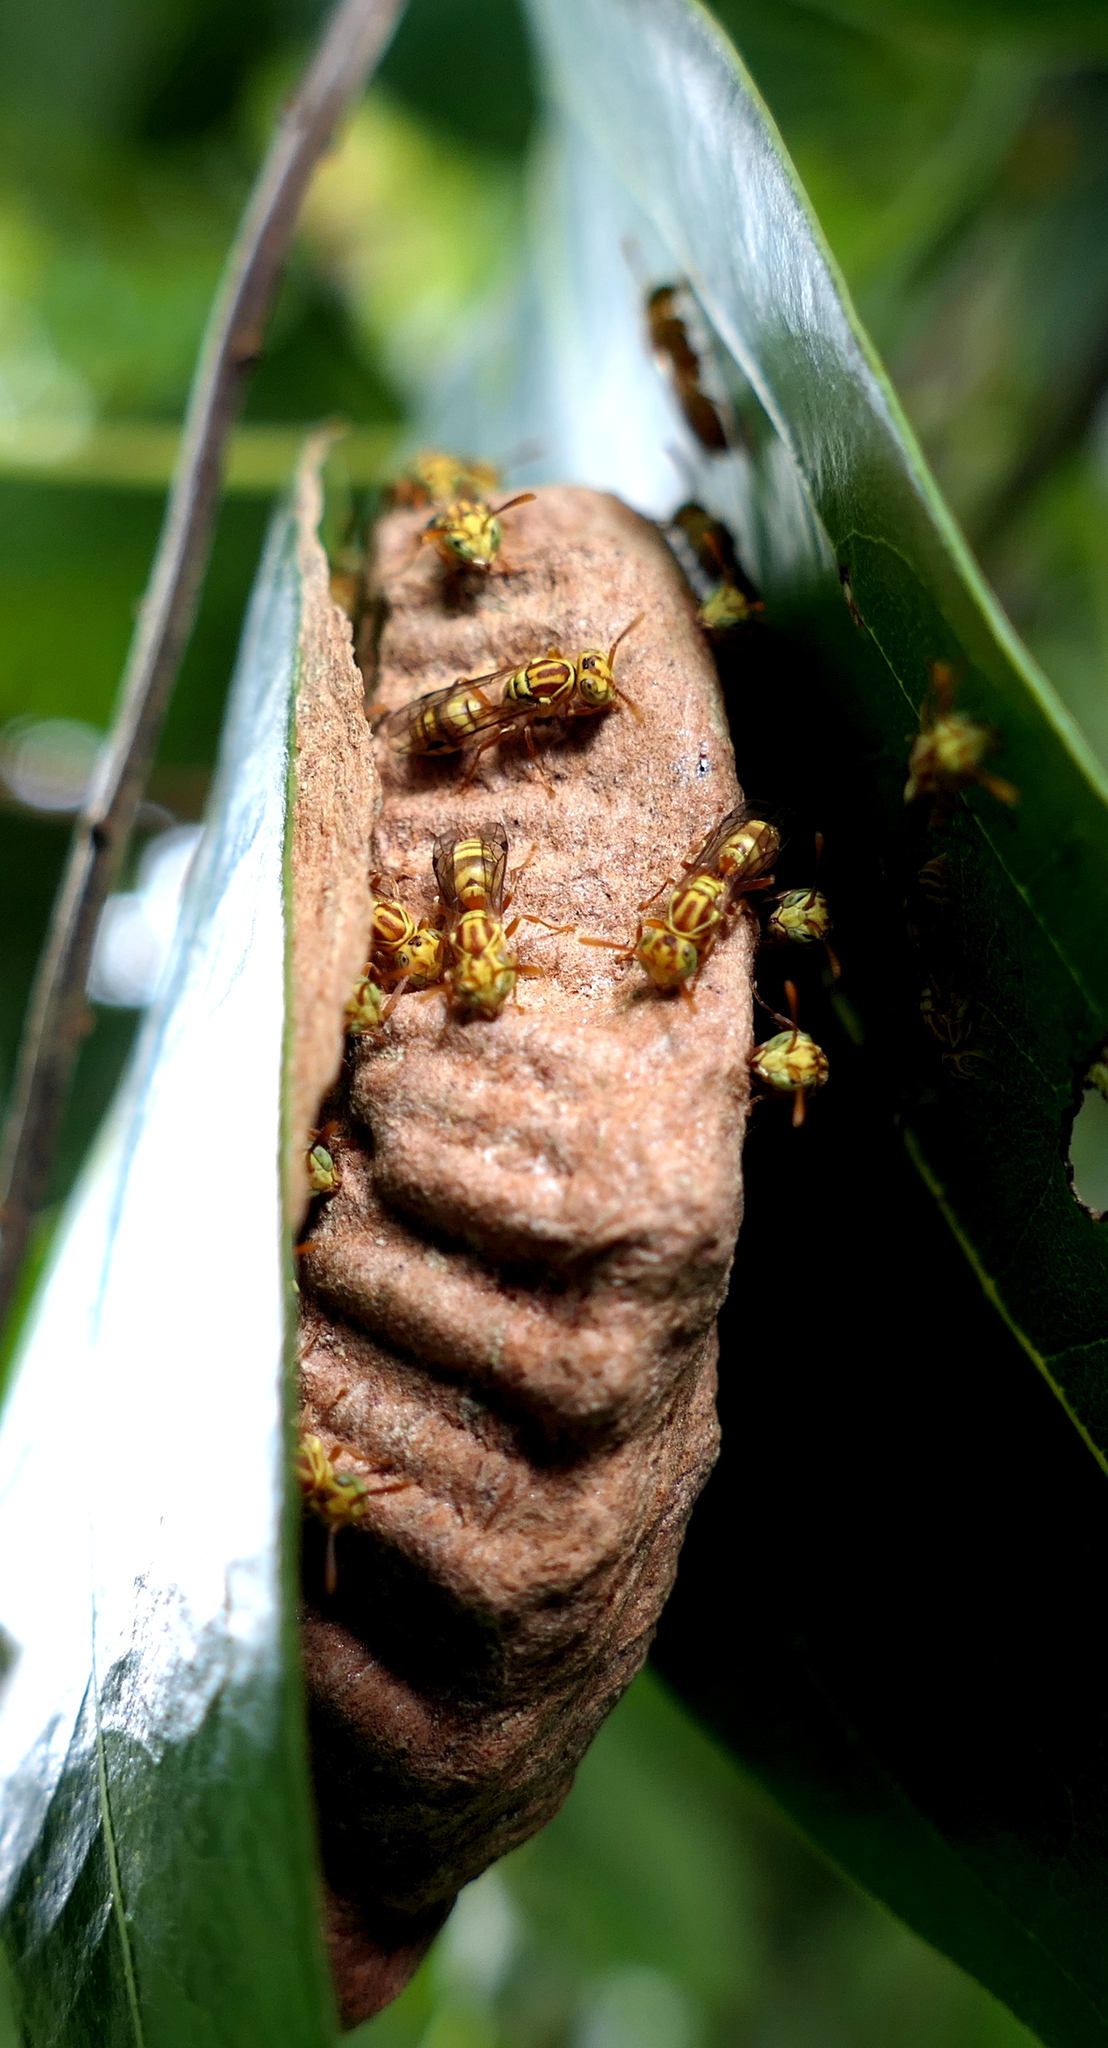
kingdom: Animalia
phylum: Arthropoda
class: Insecta
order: Hymenoptera
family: Vespidae
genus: Protopolybia
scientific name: Protopolybia potiguara
